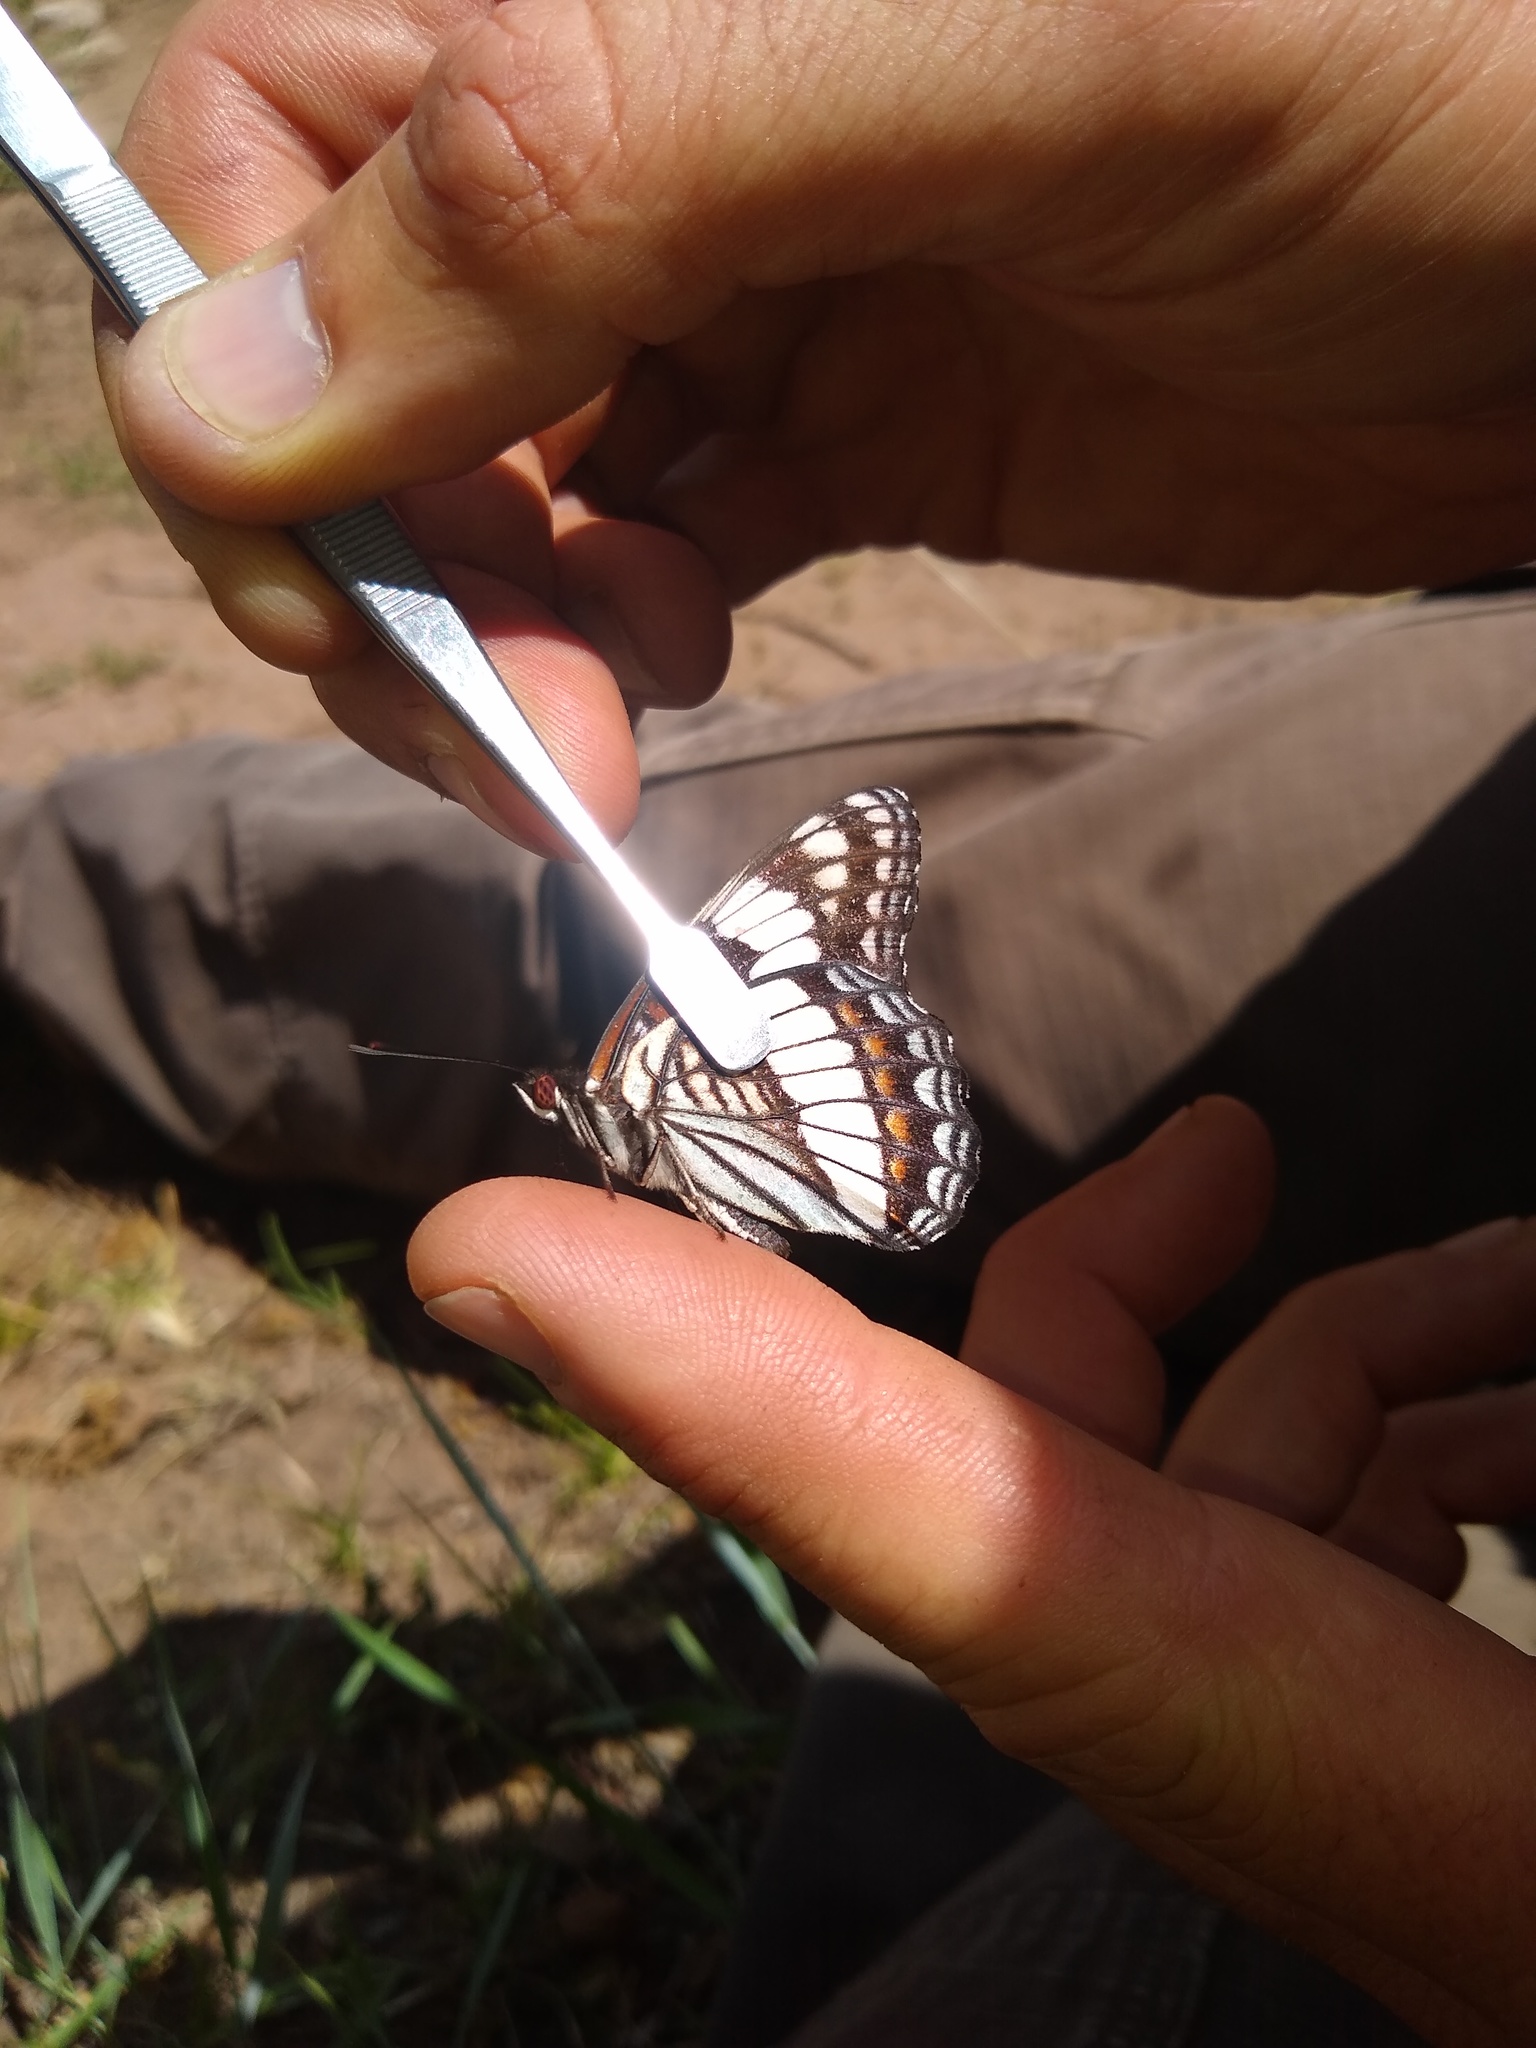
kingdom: Animalia
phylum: Arthropoda
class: Insecta
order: Lepidoptera
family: Nymphalidae
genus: Limenitis
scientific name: Limenitis weidemeyerii
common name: Weidemeyer's admiral
